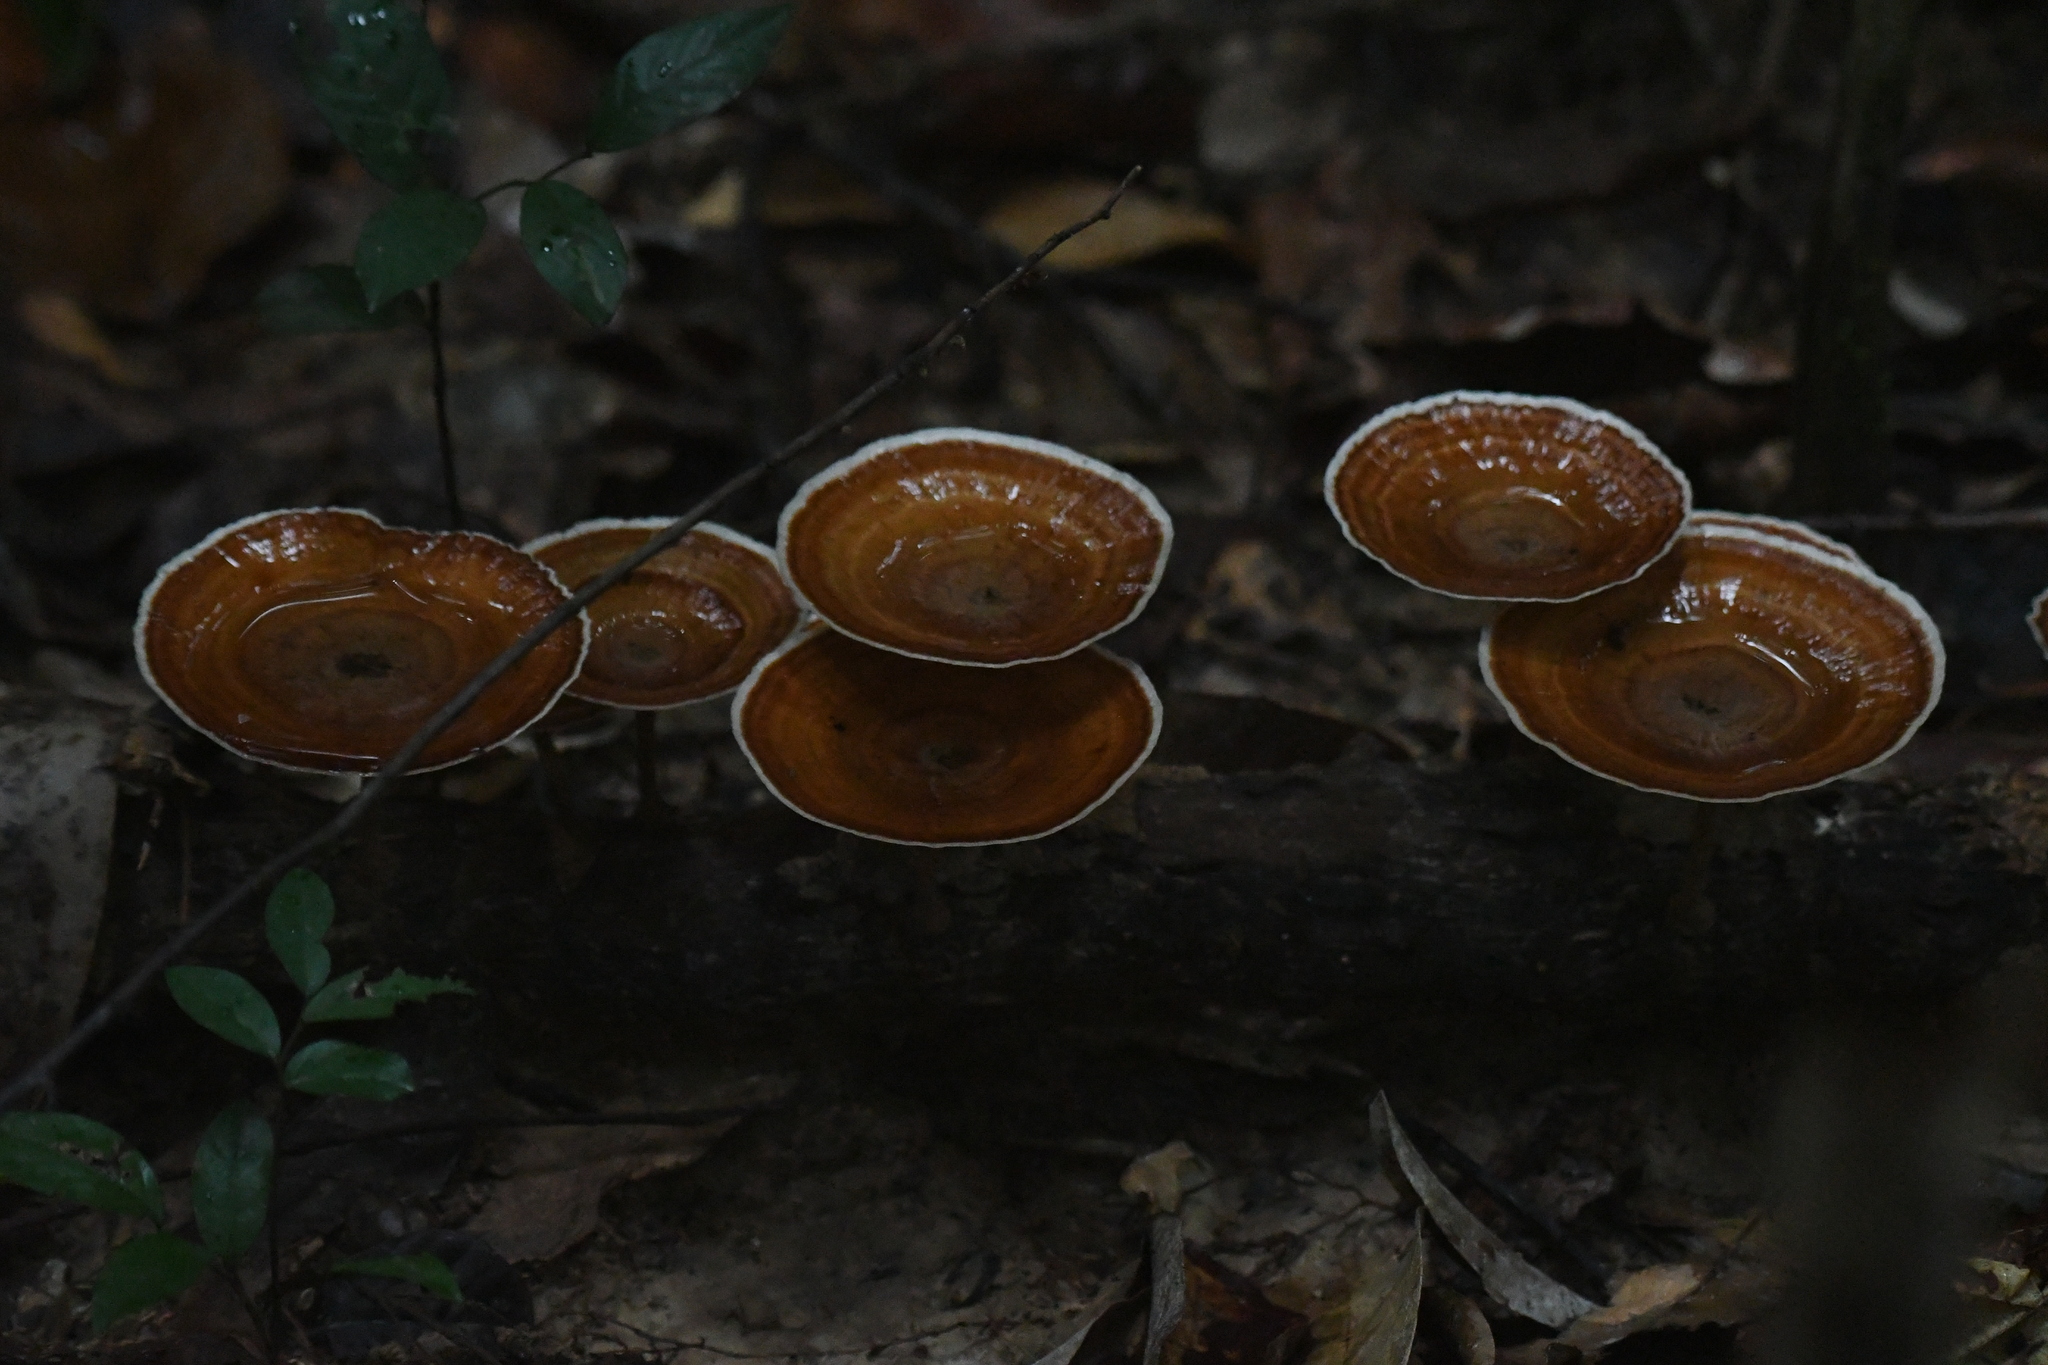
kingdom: Fungi
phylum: Basidiomycota
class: Agaricomycetes
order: Polyporales
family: Polyporaceae
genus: Microporus
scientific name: Microporus xanthopus
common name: Yellow-stemmed micropore
